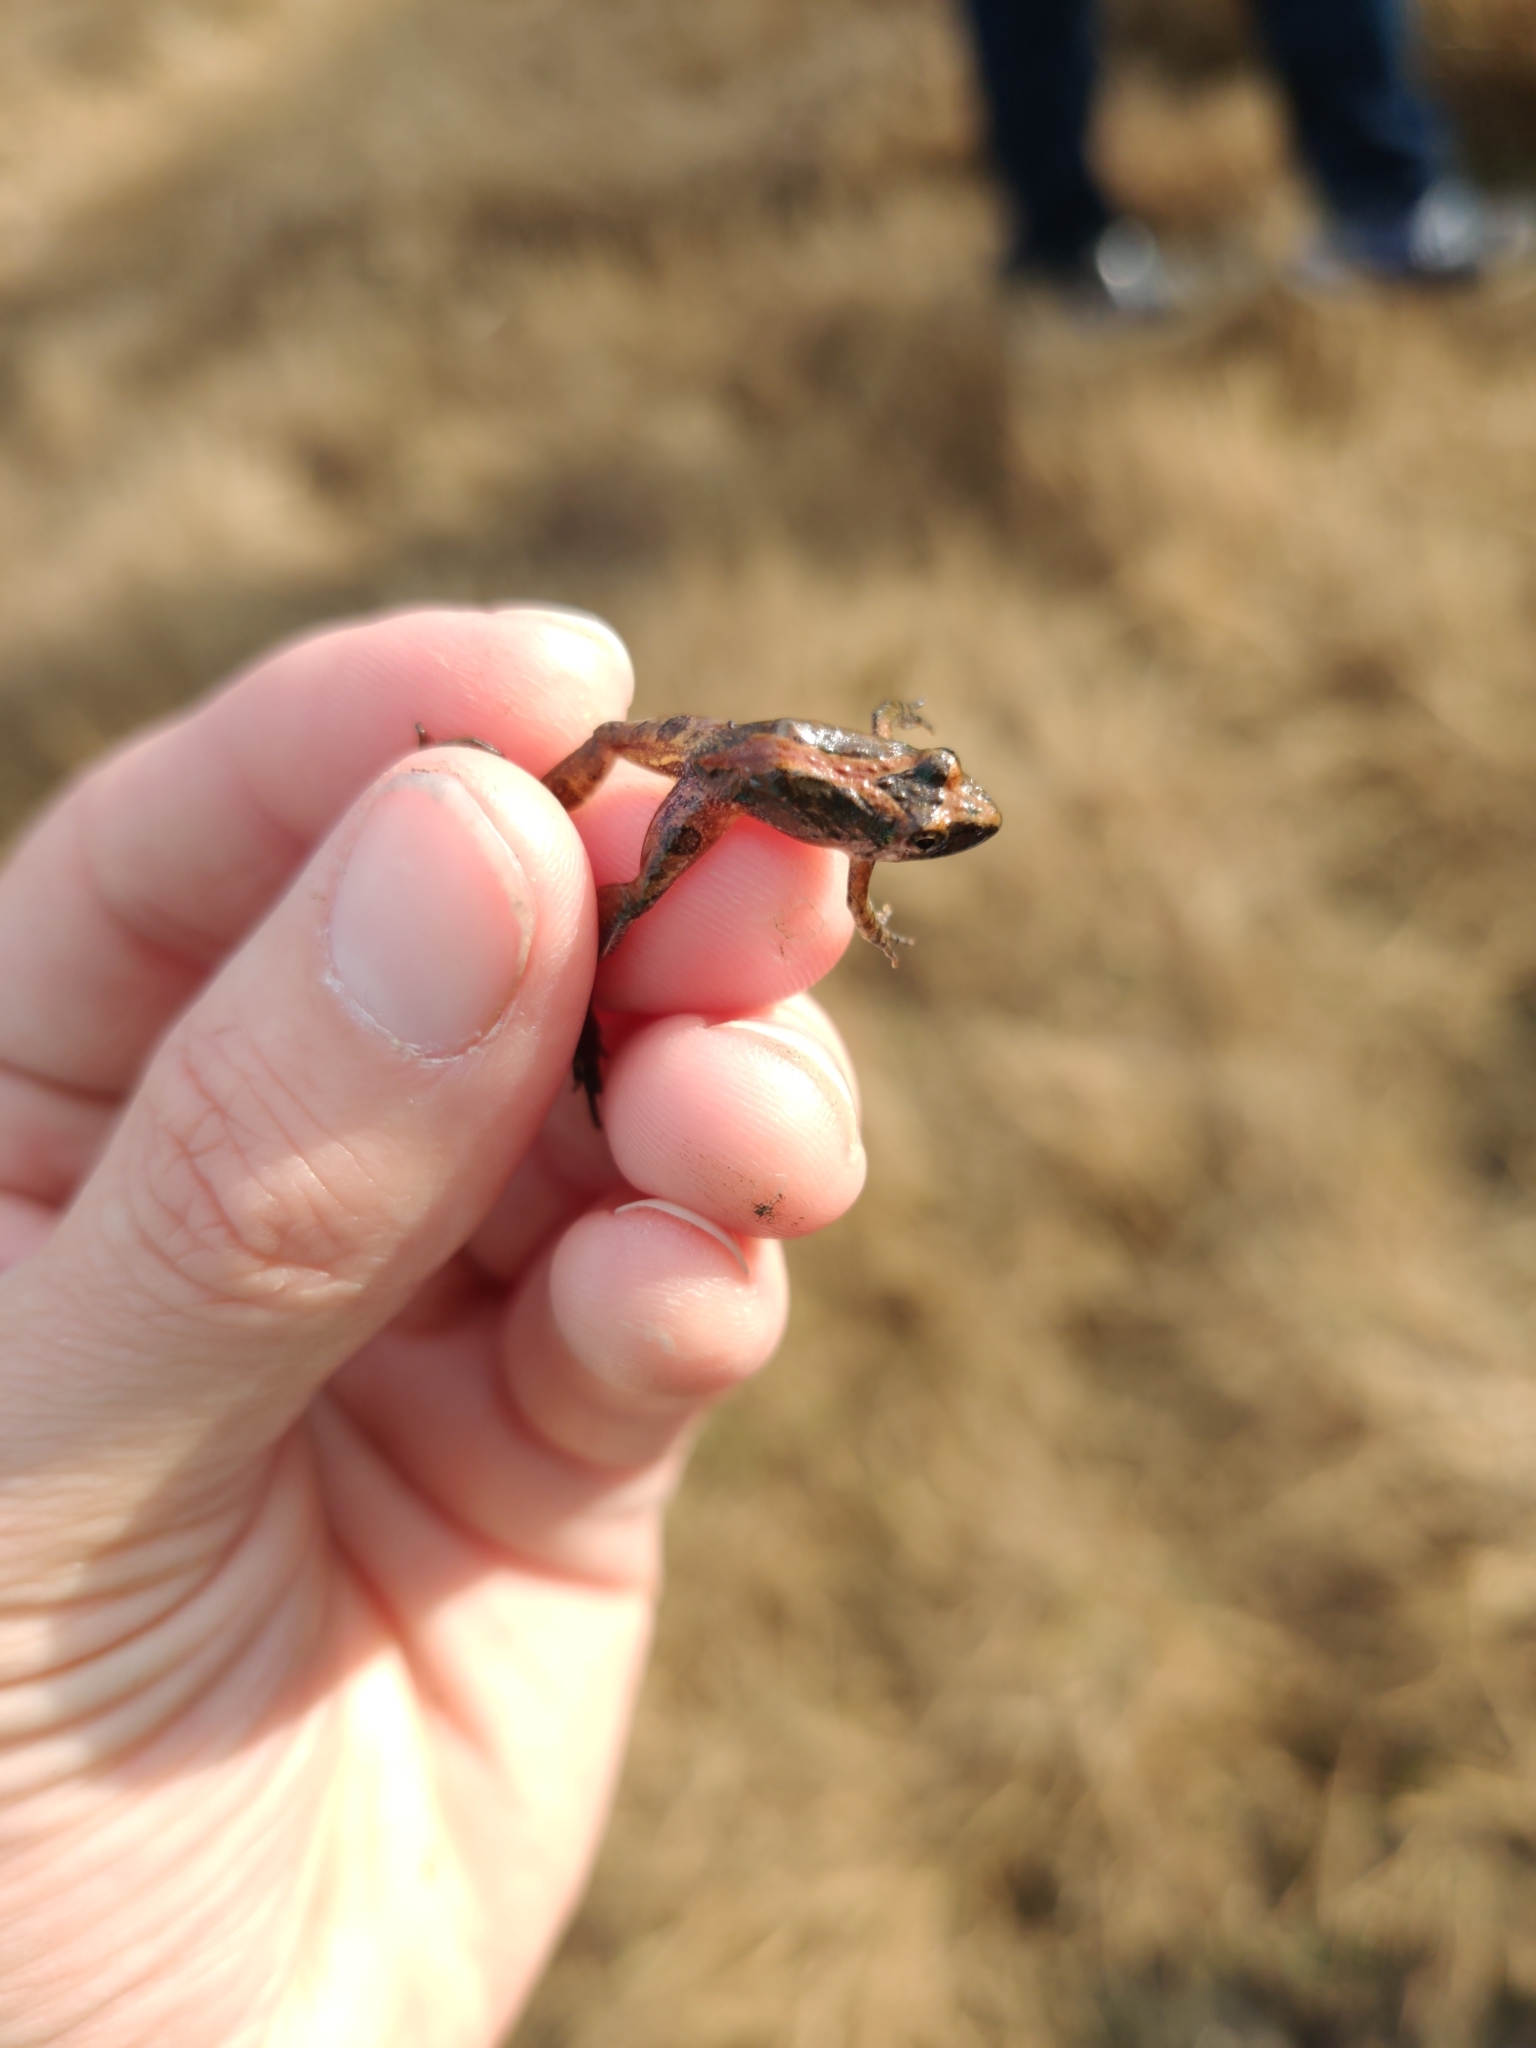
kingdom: Animalia
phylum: Chordata
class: Amphibia
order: Anura
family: Hylidae
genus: Acris
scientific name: Acris gryllus
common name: Southern cricket frog
